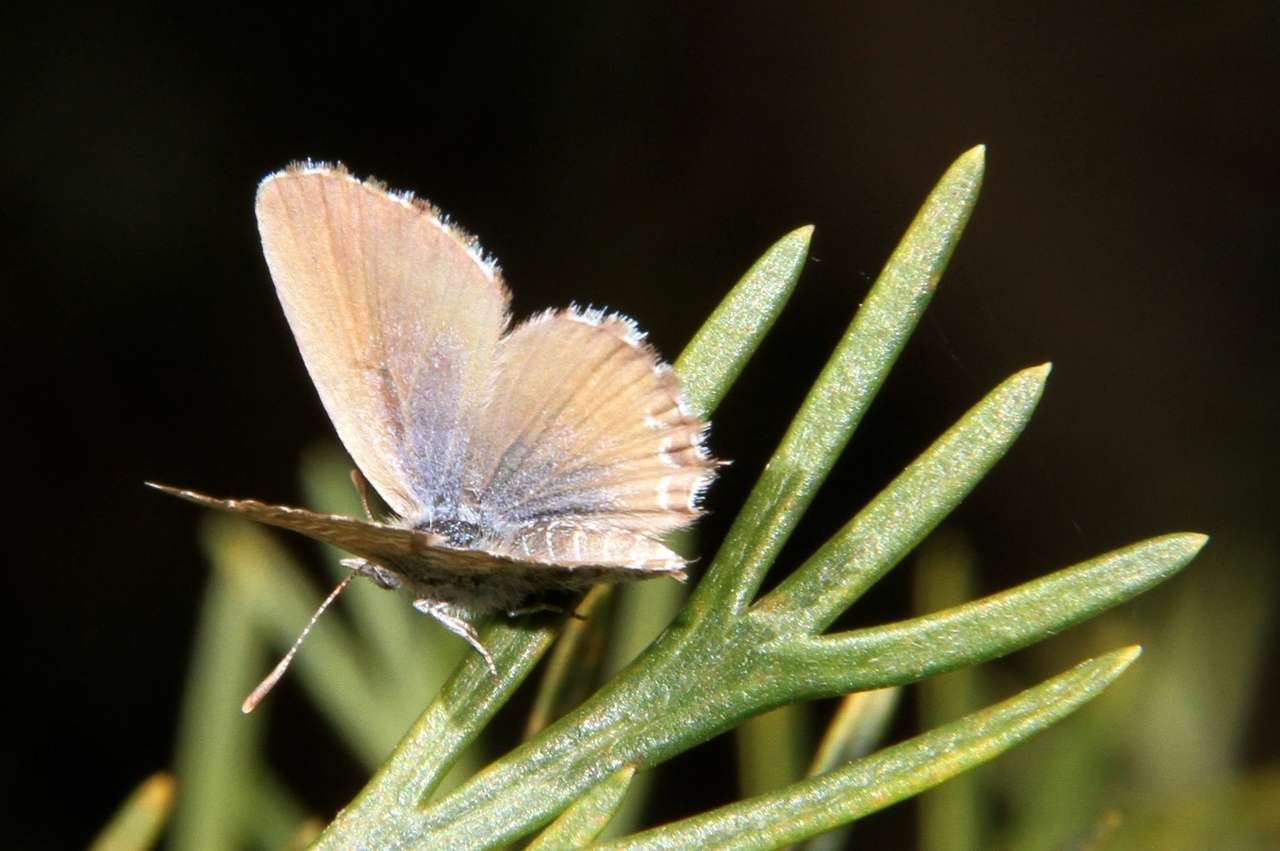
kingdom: Animalia
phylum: Arthropoda
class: Insecta
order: Lepidoptera
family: Lycaenidae
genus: Theclinesthes
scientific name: Theclinesthes serpentata
